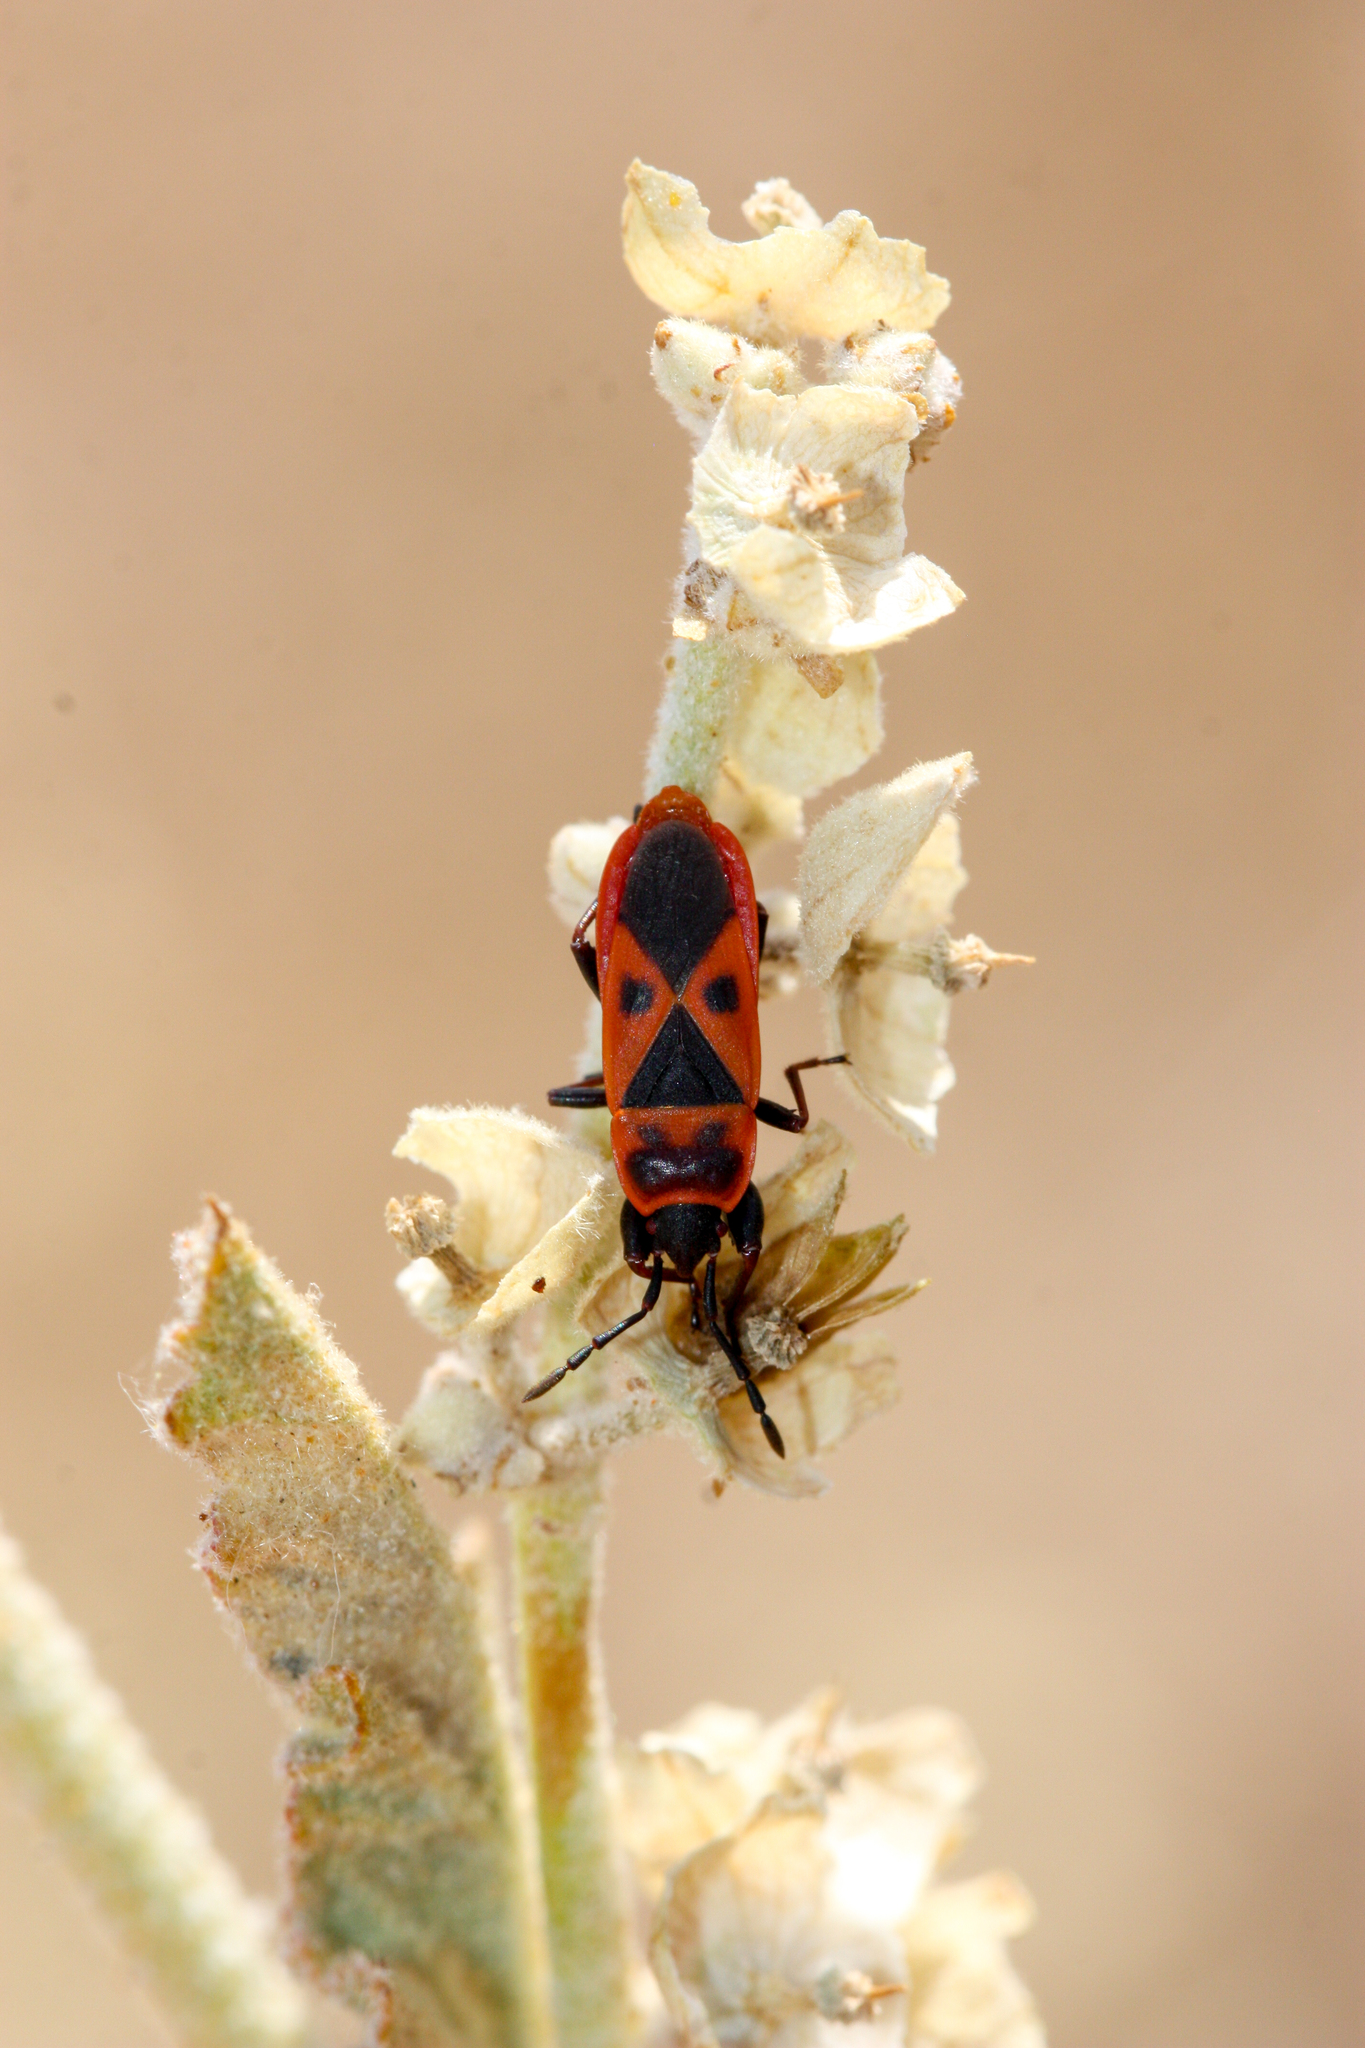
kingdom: Animalia
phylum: Arthropoda
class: Insecta
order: Hemiptera
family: Pyrrhocoridae
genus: Scantius
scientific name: Scantius aegyptius
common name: Red bug
